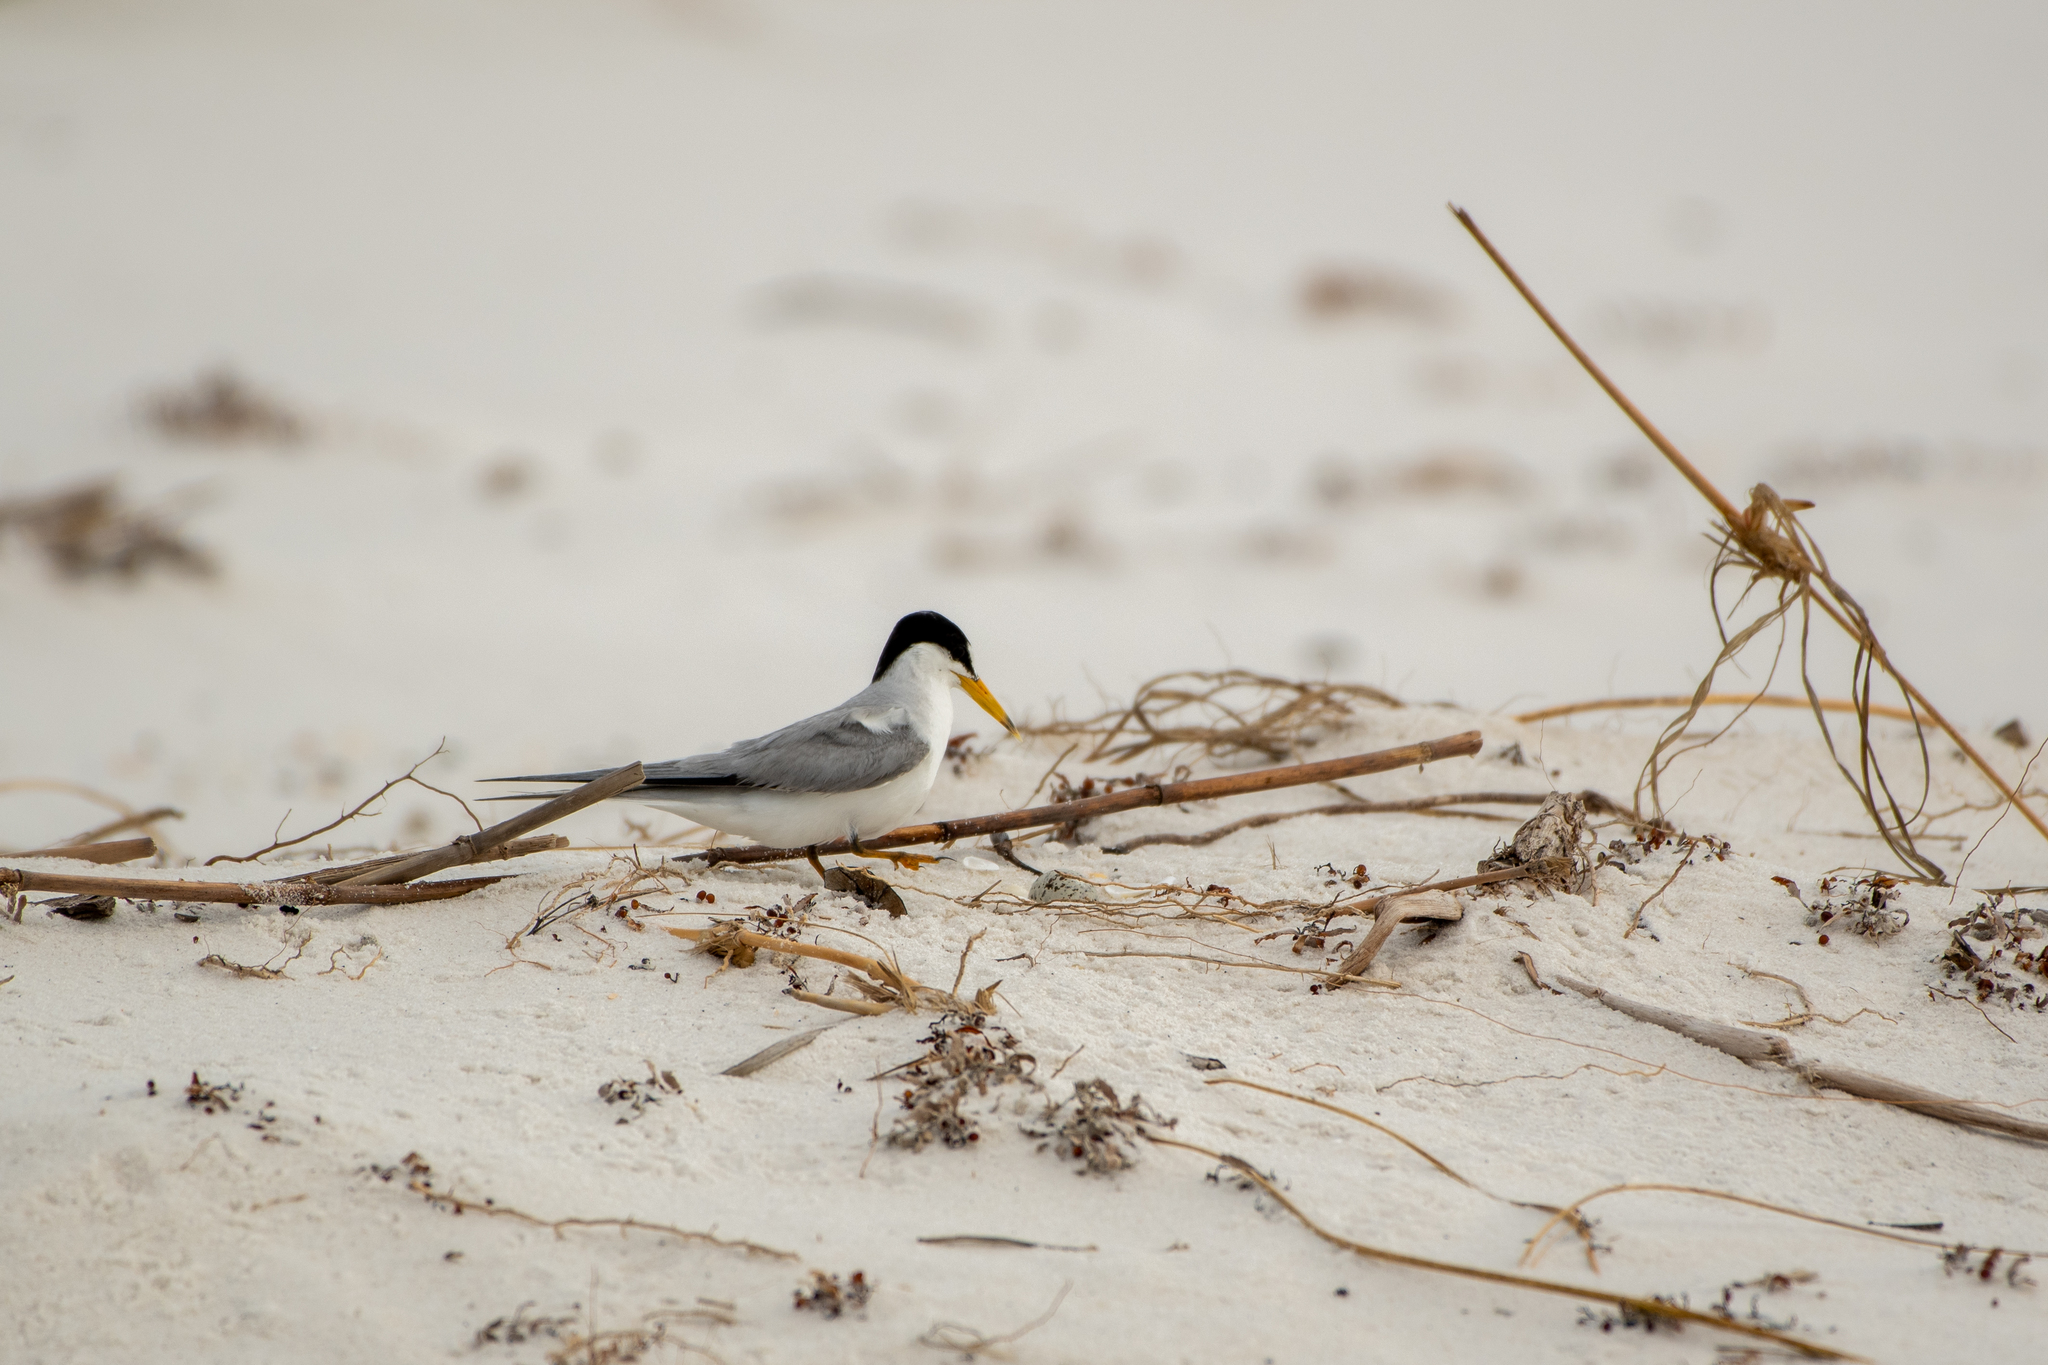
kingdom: Animalia
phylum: Chordata
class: Aves
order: Charadriiformes
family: Laridae
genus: Sternula
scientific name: Sternula antillarum
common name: Least tern
